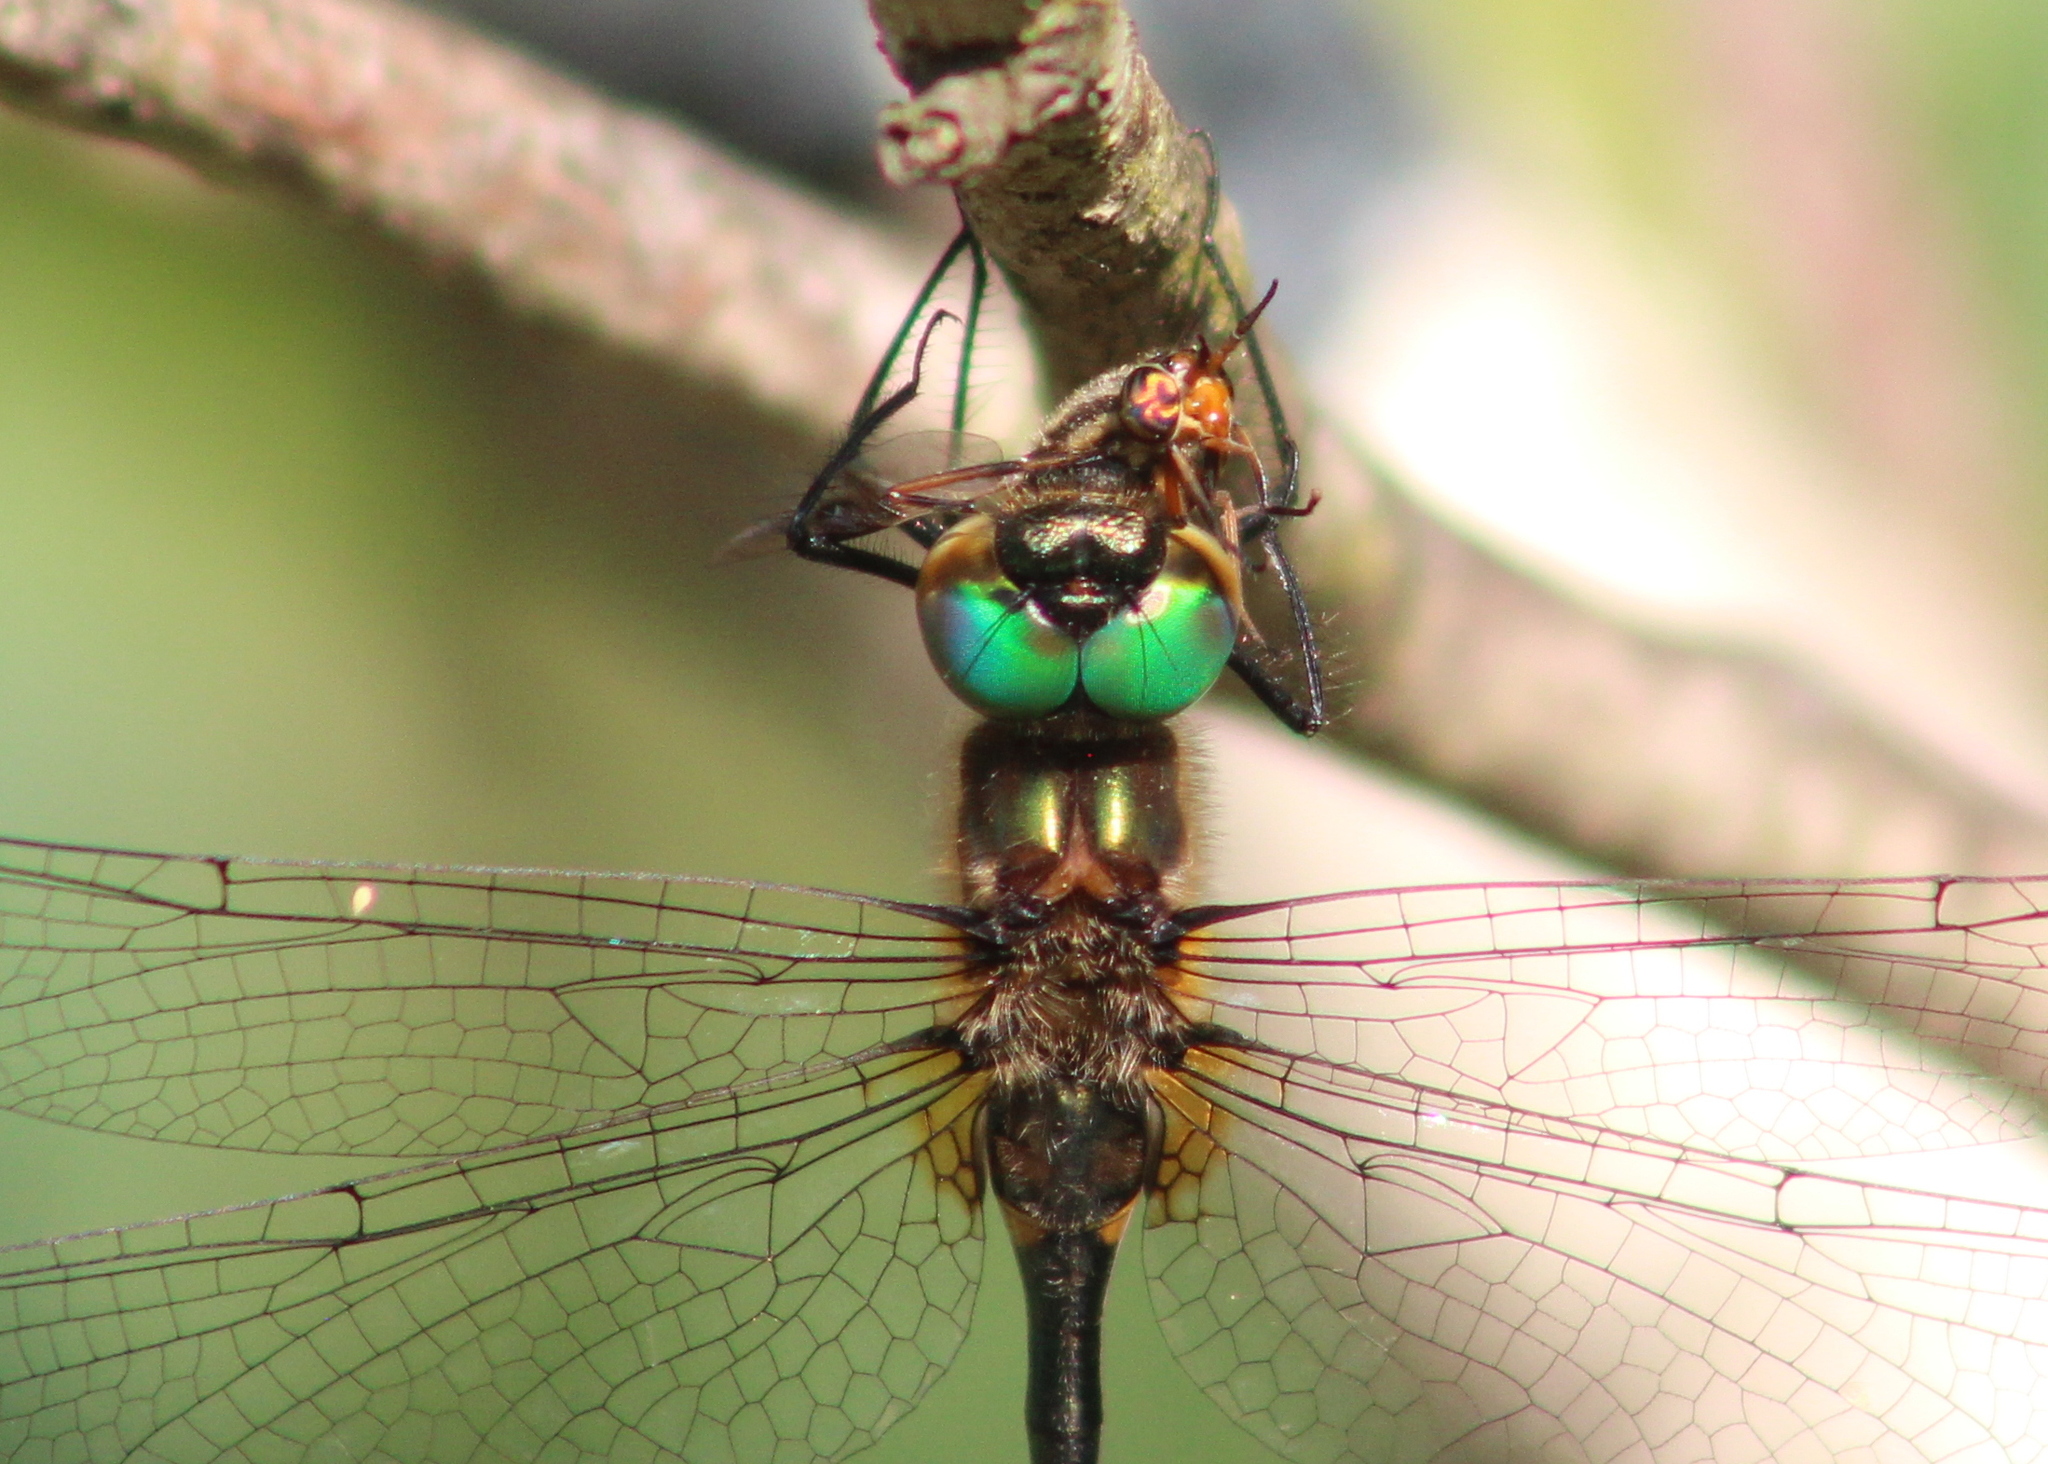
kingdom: Animalia
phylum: Arthropoda
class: Insecta
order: Odonata
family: Corduliidae
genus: Dorocordulia
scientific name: Dorocordulia libera
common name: Racket-tailed emerald
